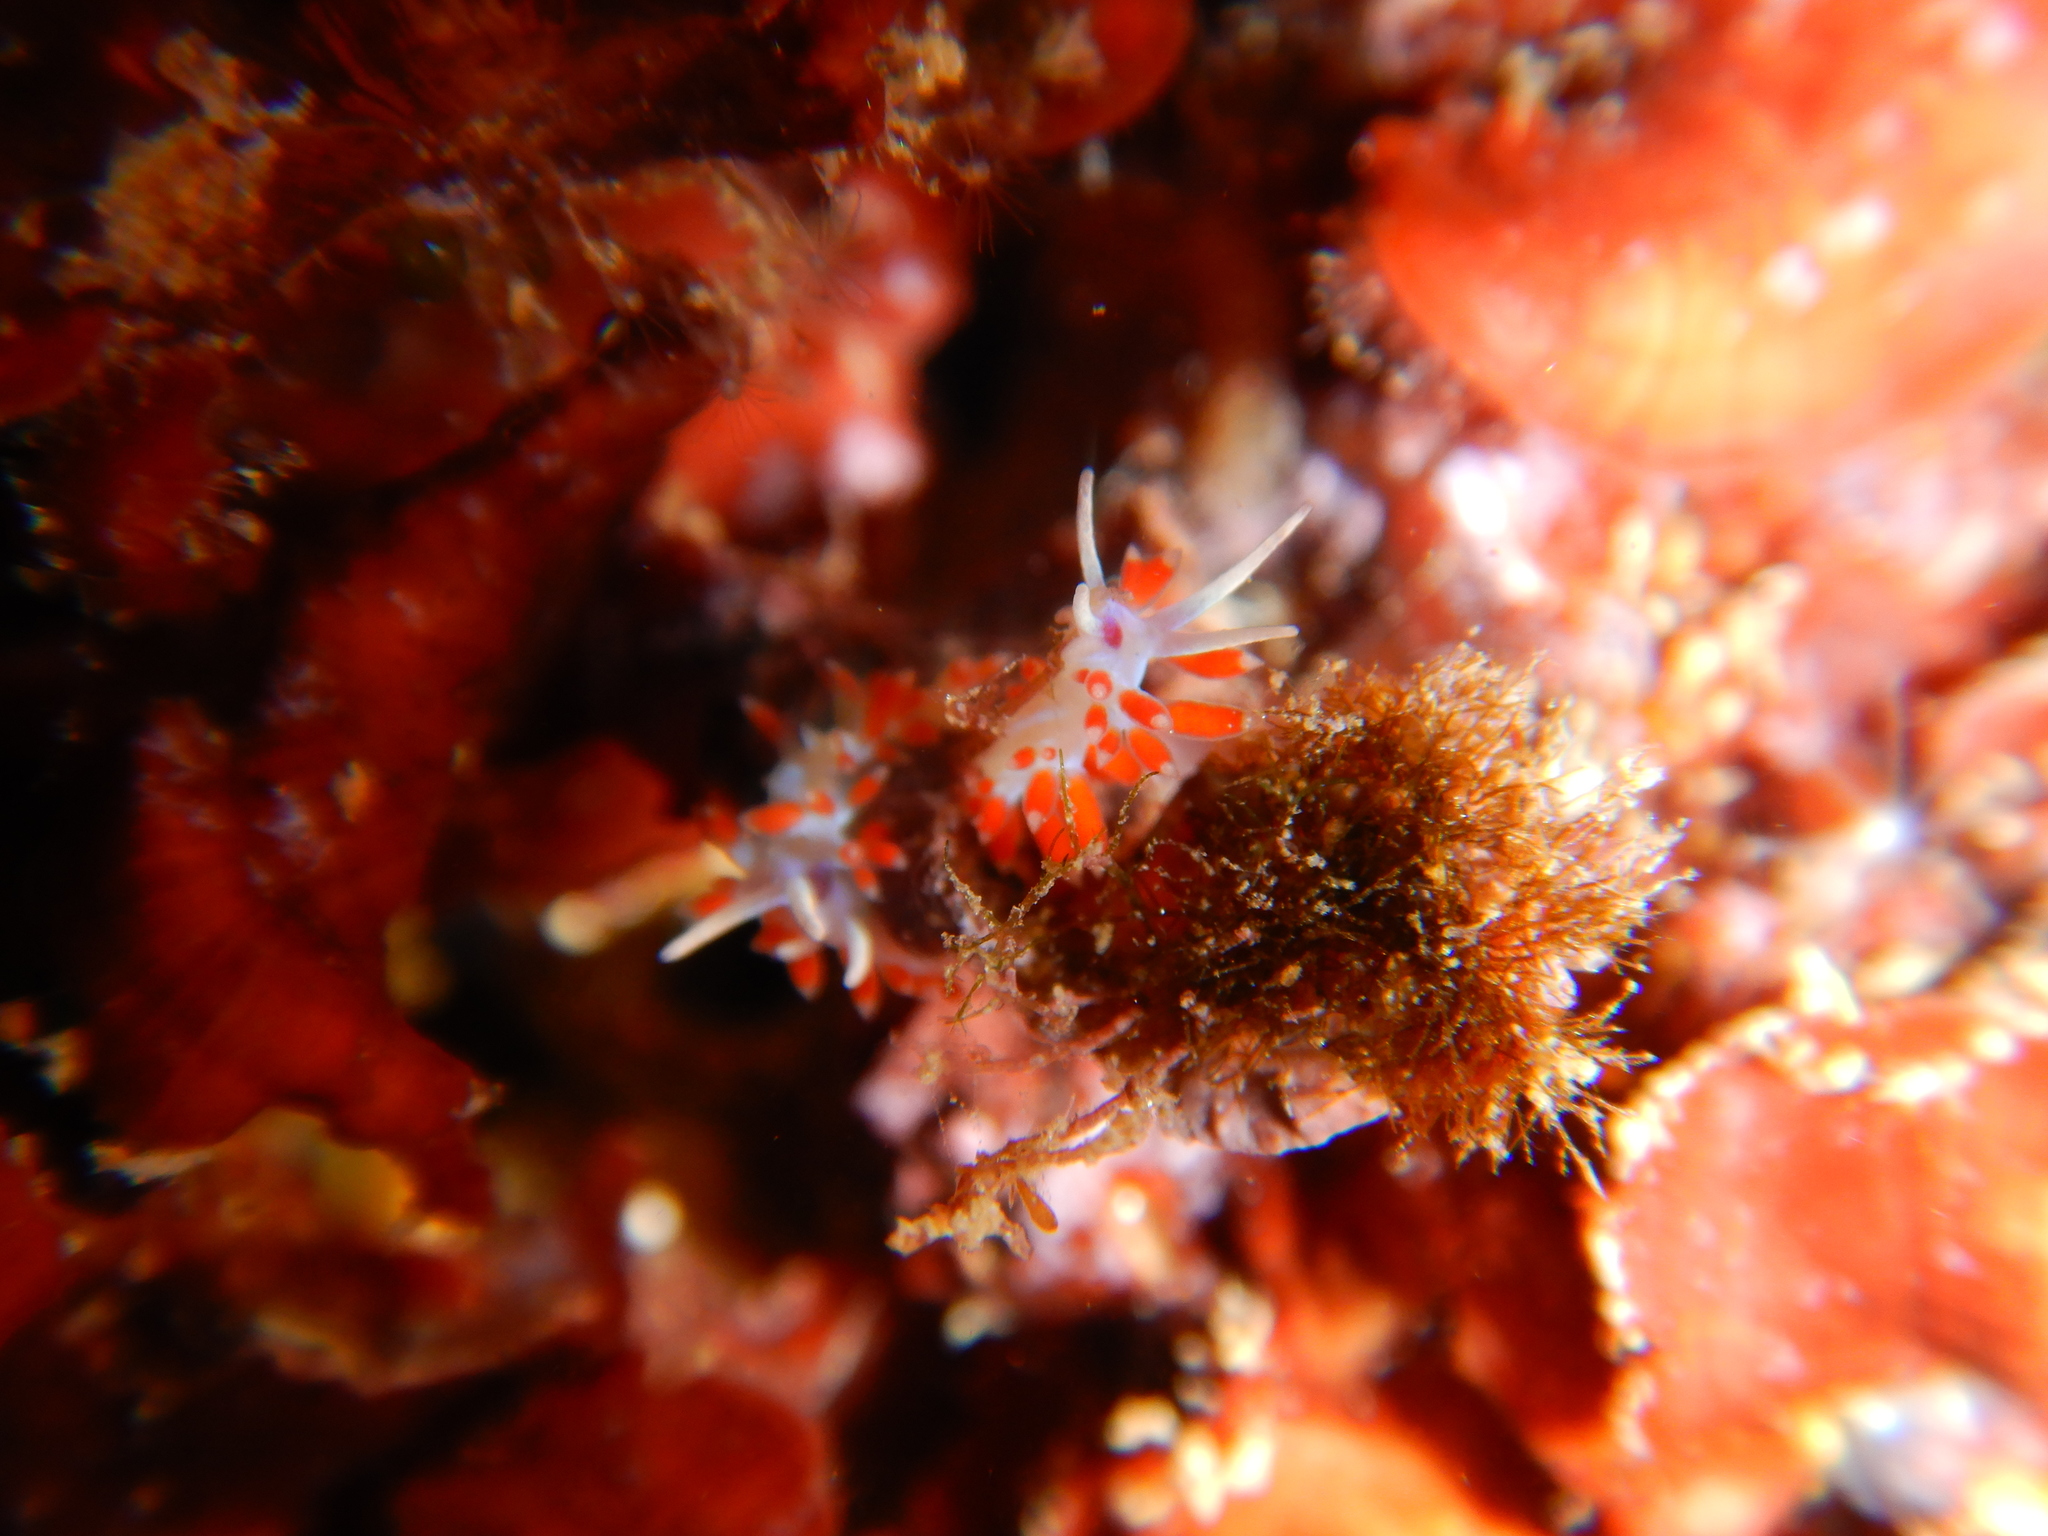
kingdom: Animalia
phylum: Mollusca
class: Gastropoda
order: Nudibranchia
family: Flabellinidae
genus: Calmella
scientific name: Calmella cavolini
